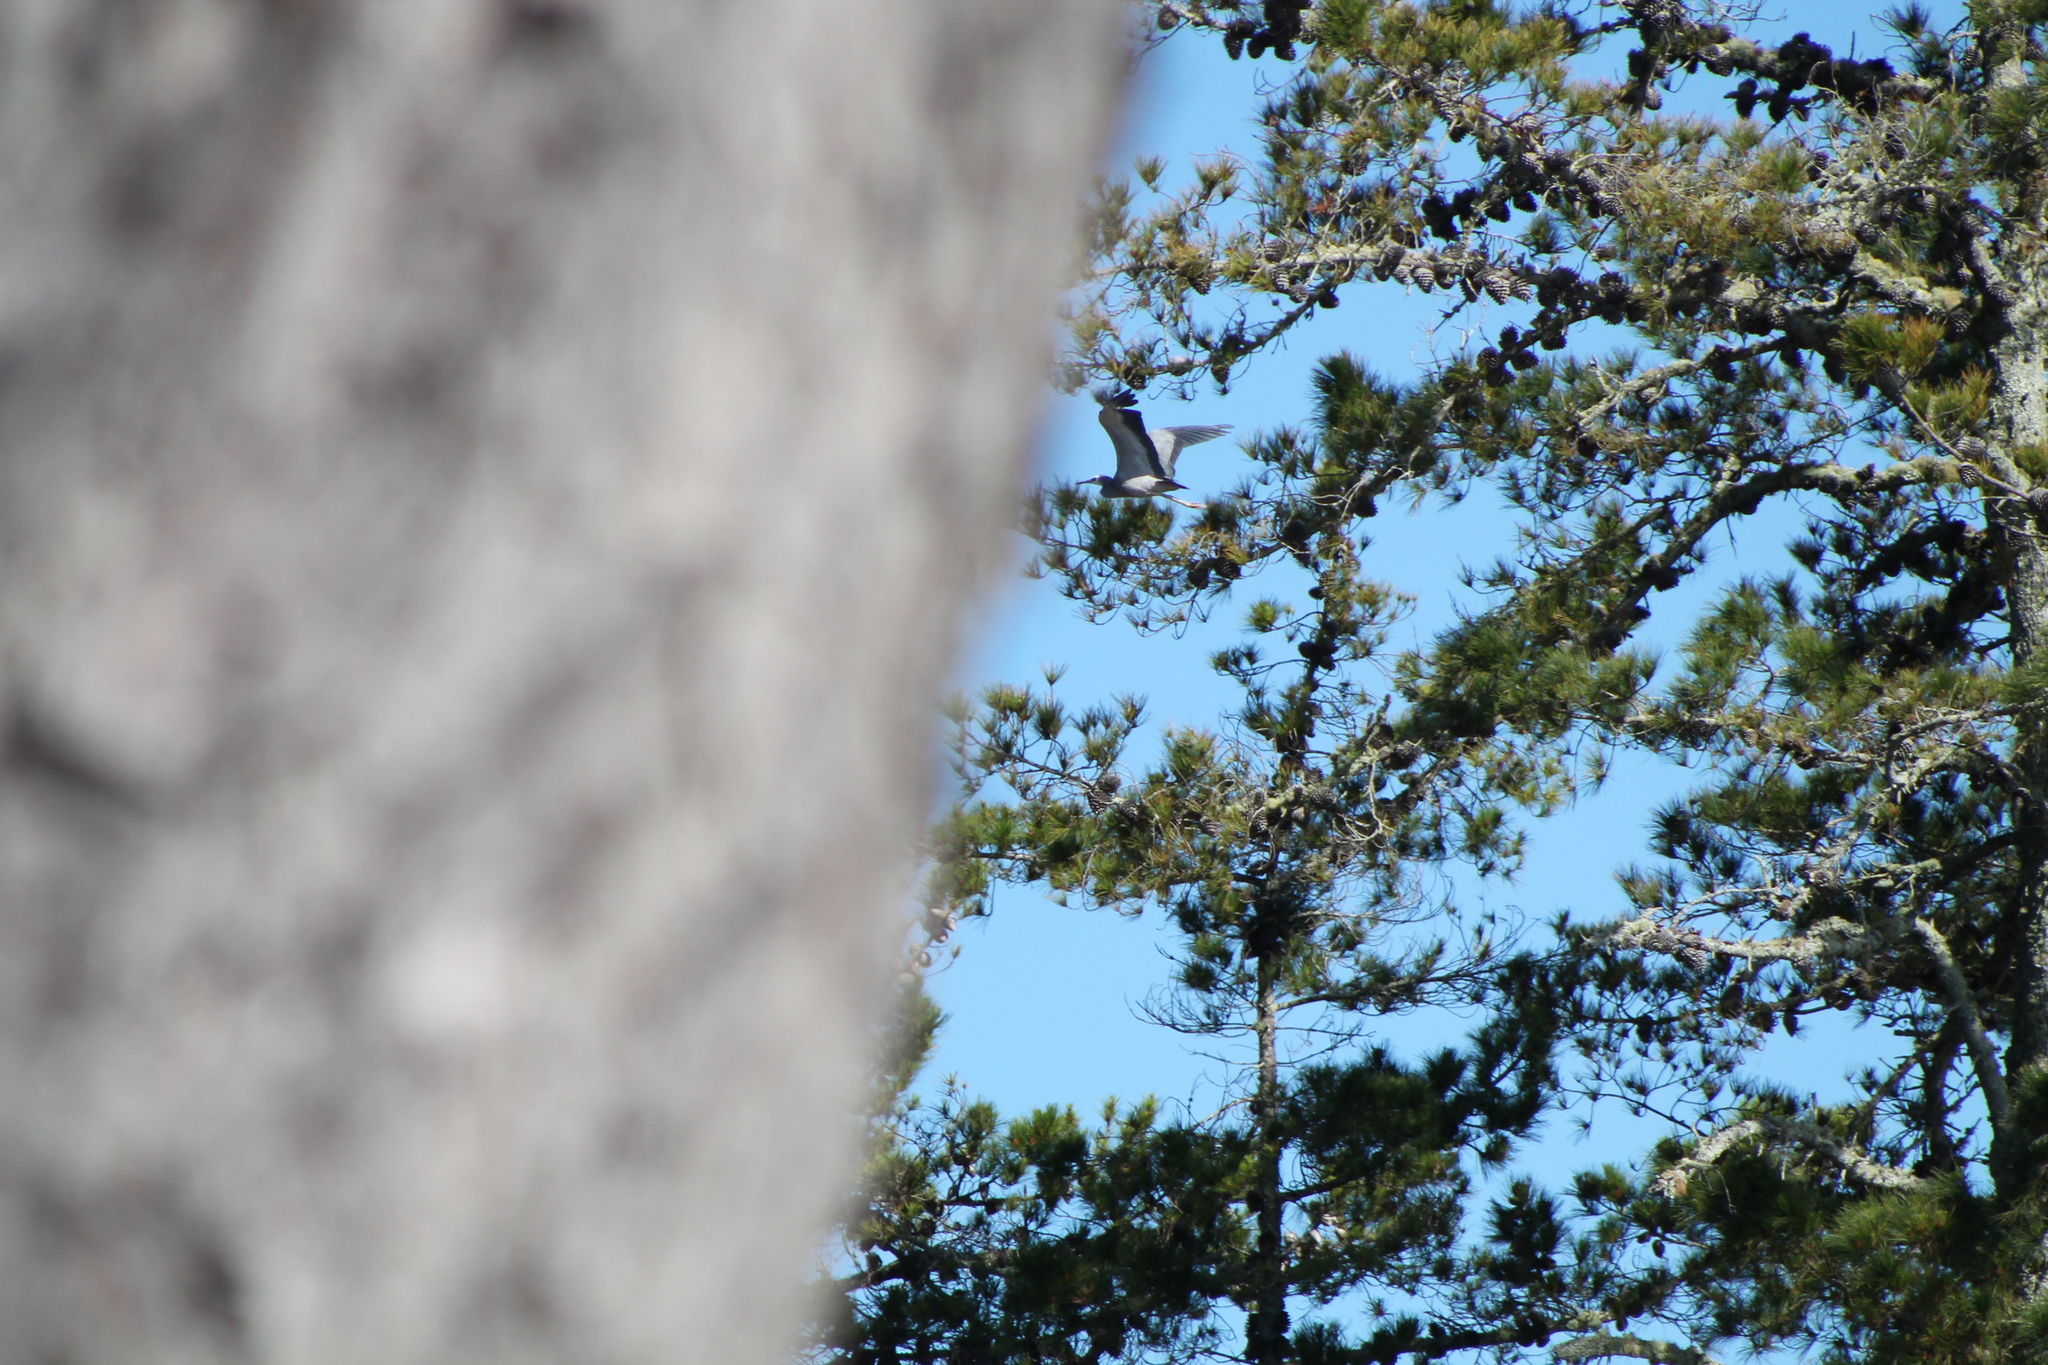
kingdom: Animalia
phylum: Chordata
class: Aves
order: Pelecaniformes
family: Ardeidae
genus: Egretta
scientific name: Egretta novaehollandiae
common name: White-faced heron
